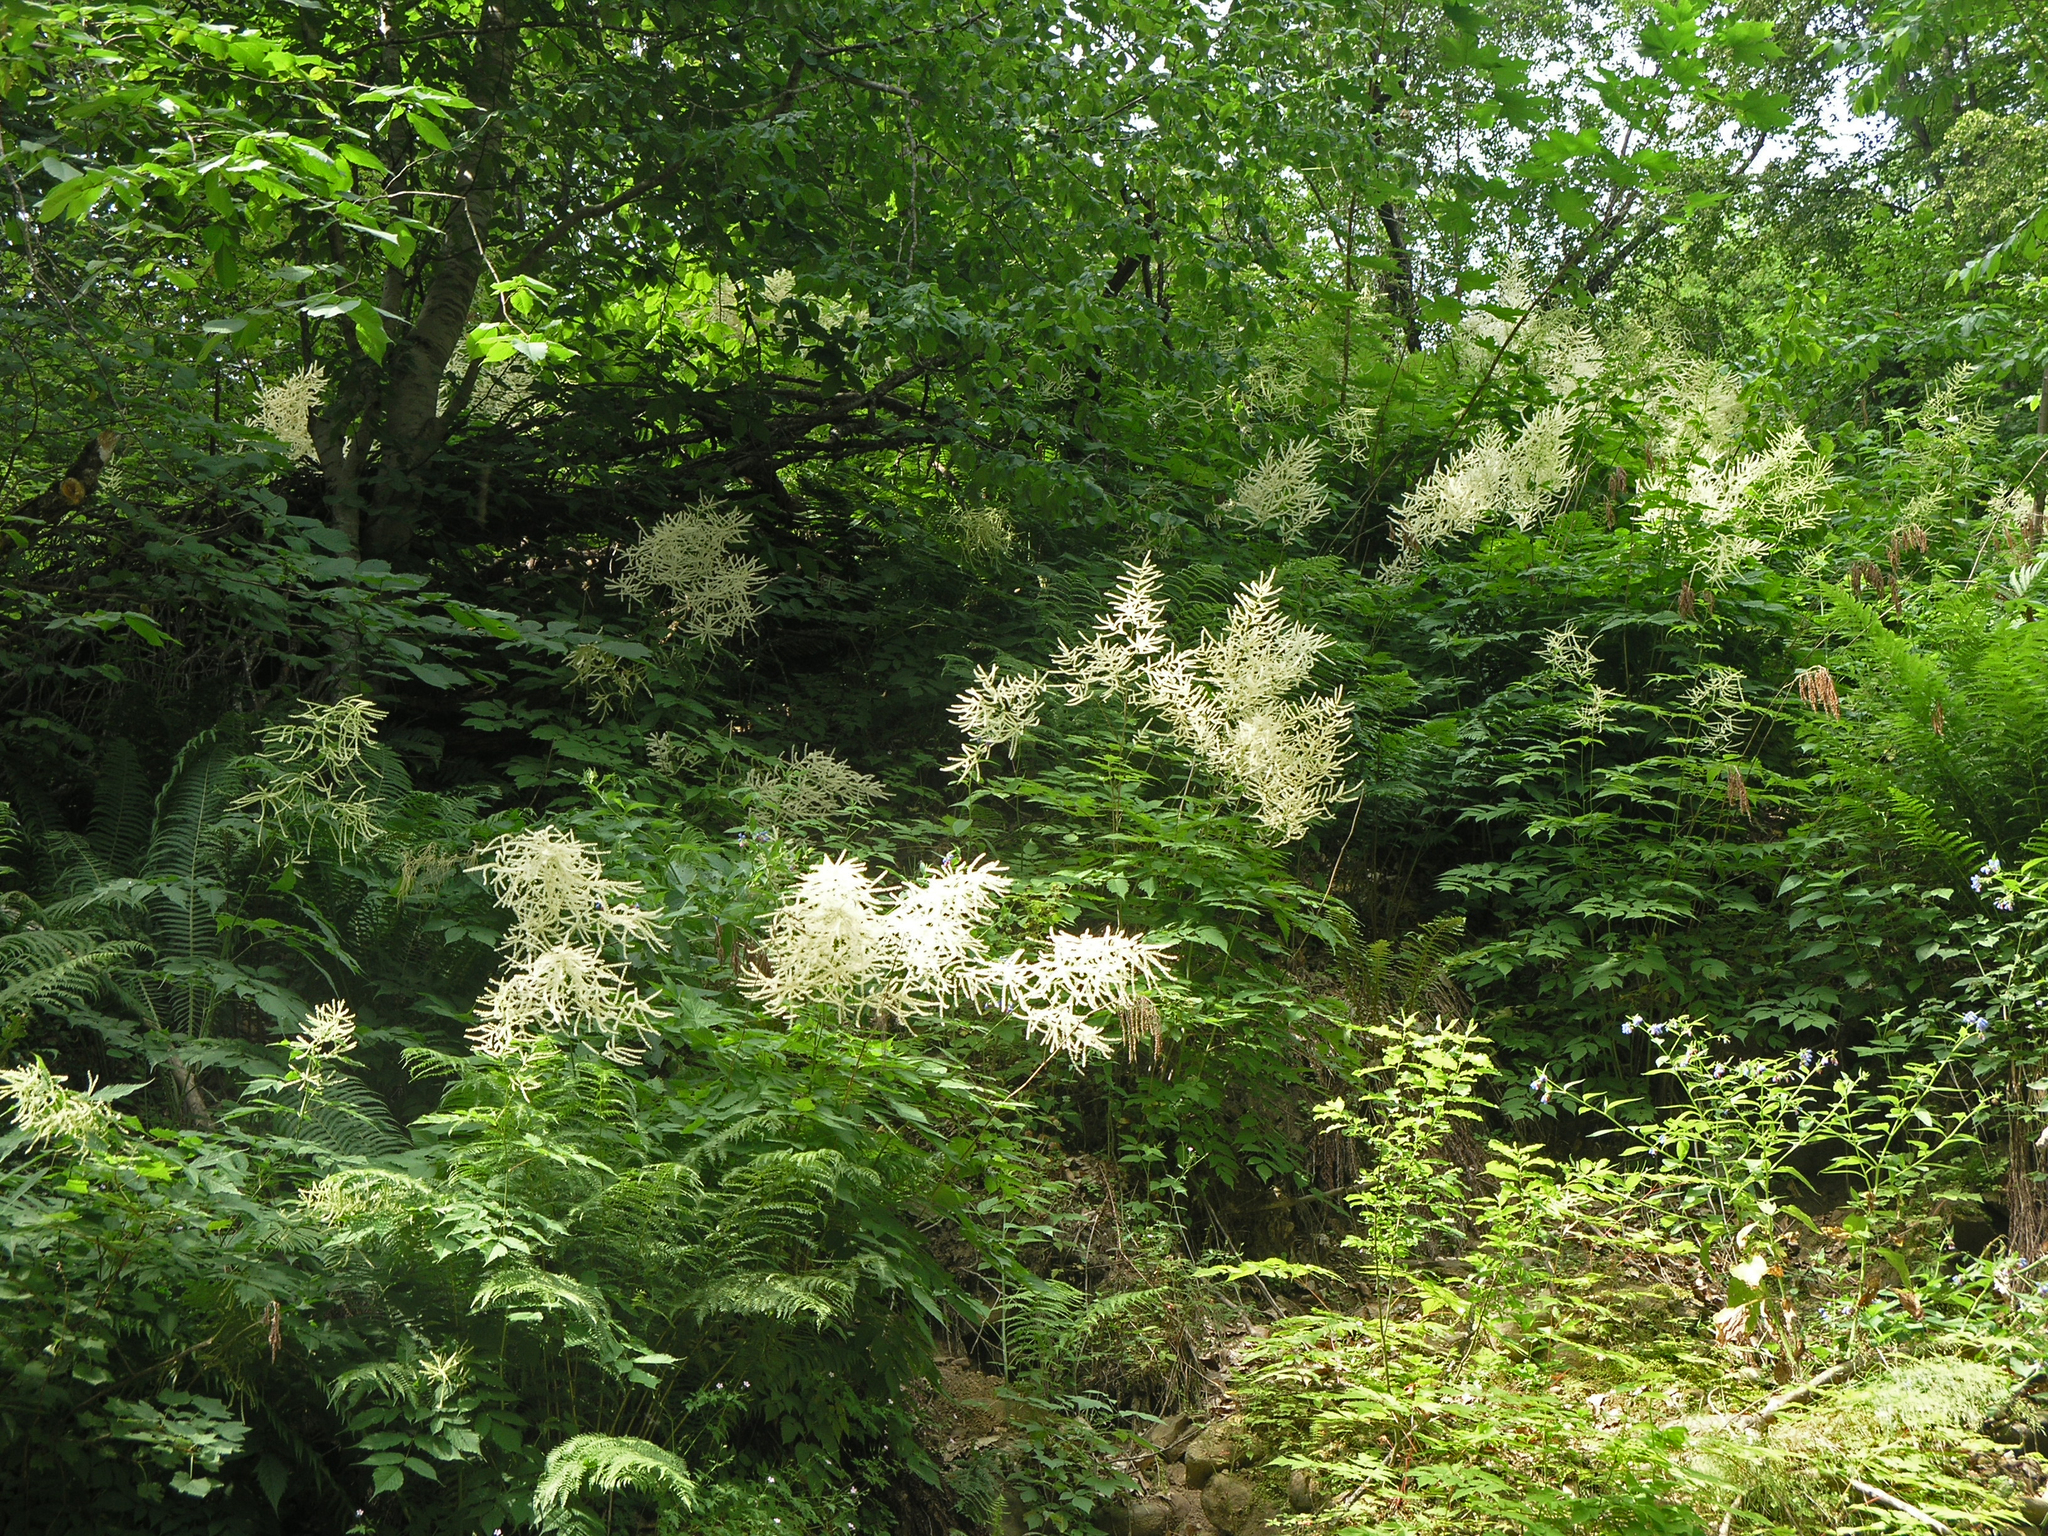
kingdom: Plantae
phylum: Tracheophyta
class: Magnoliopsida
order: Rosales
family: Rosaceae
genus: Aruncus
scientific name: Aruncus sylvester
